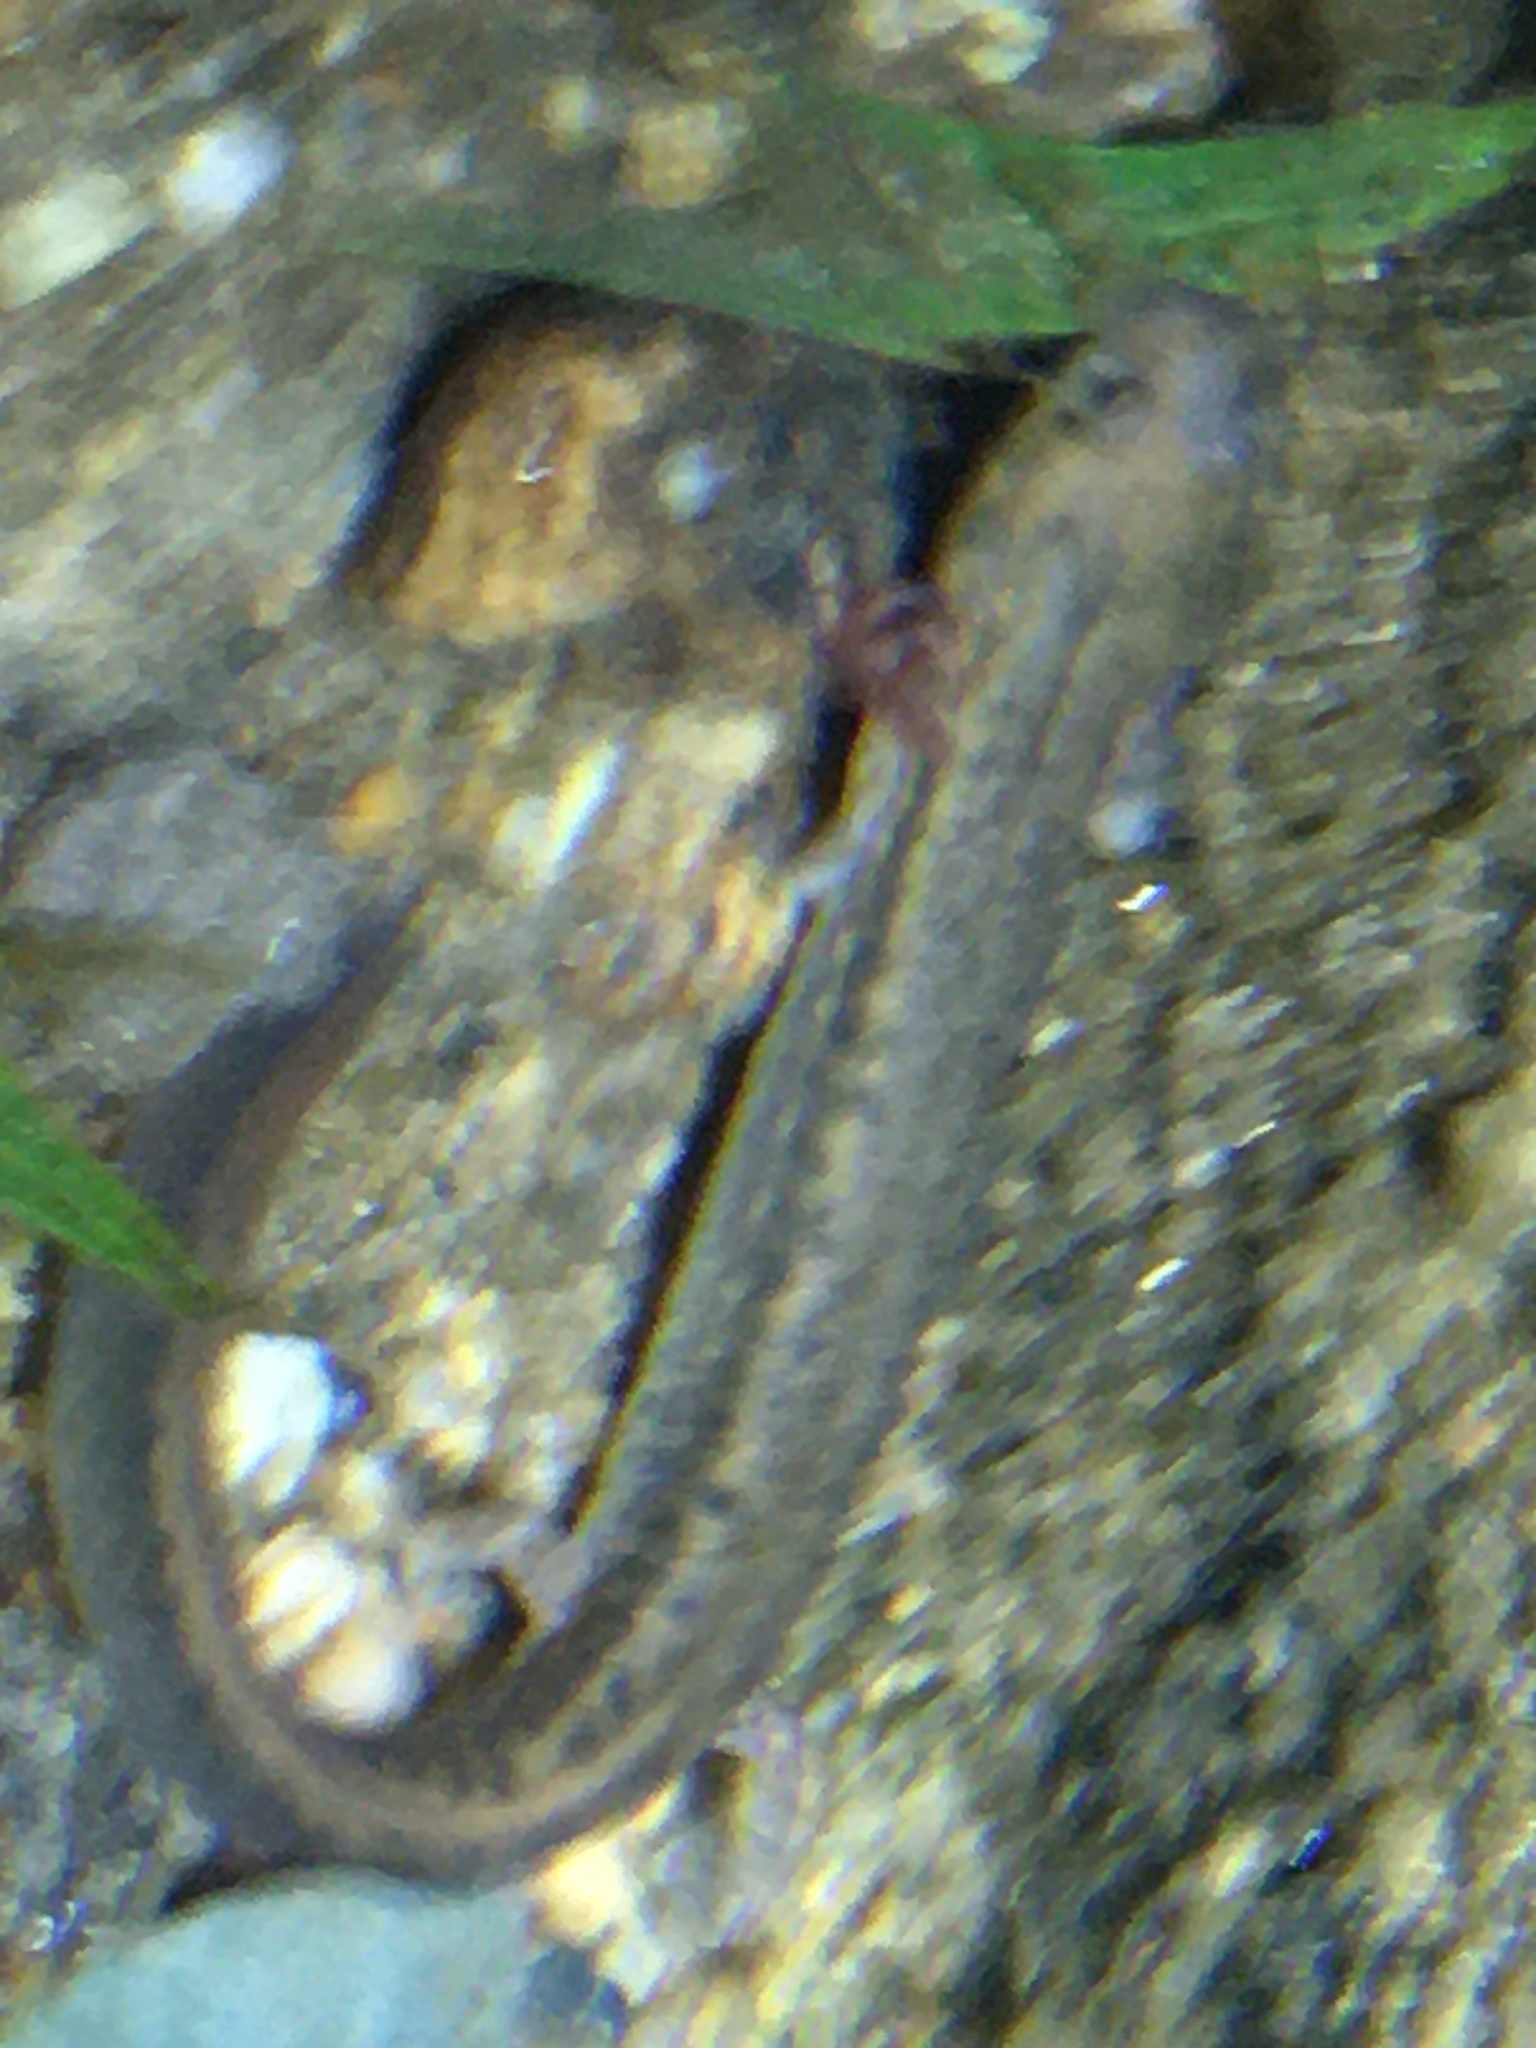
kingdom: Animalia
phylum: Chordata
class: Amphibia
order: Caudata
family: Plethodontidae
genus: Eurycea
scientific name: Eurycea bislineata
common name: Northern two-lined salamander
